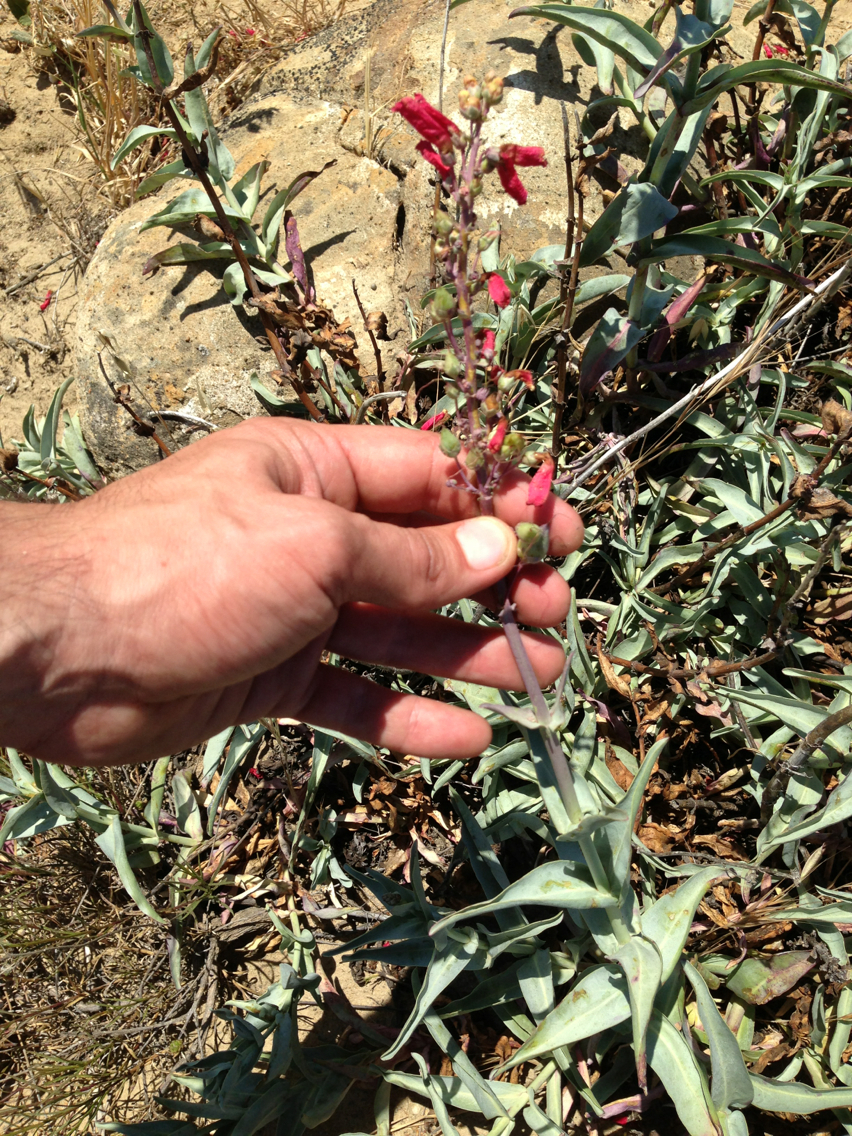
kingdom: Plantae
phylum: Tracheophyta
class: Magnoliopsida
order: Lamiales
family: Plantaginaceae
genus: Penstemon
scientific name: Penstemon centranthifolius
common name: Scarlet bugler
